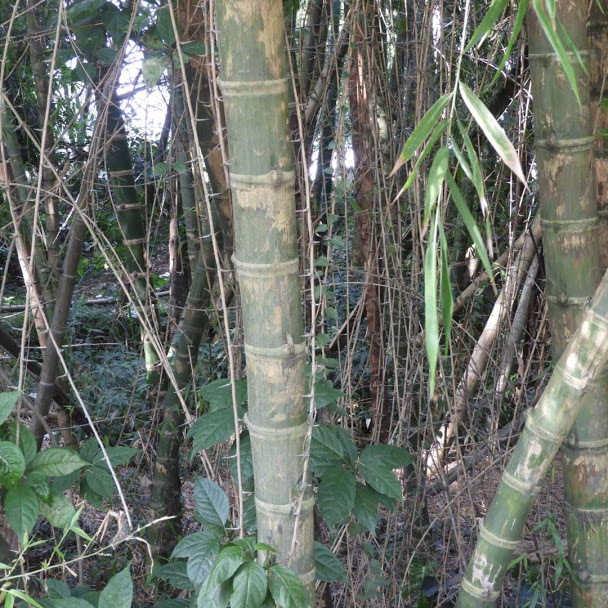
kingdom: Plantae
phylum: Tracheophyta
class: Liliopsida
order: Poales
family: Poaceae
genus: Guadua
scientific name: Guadua angustifolia
